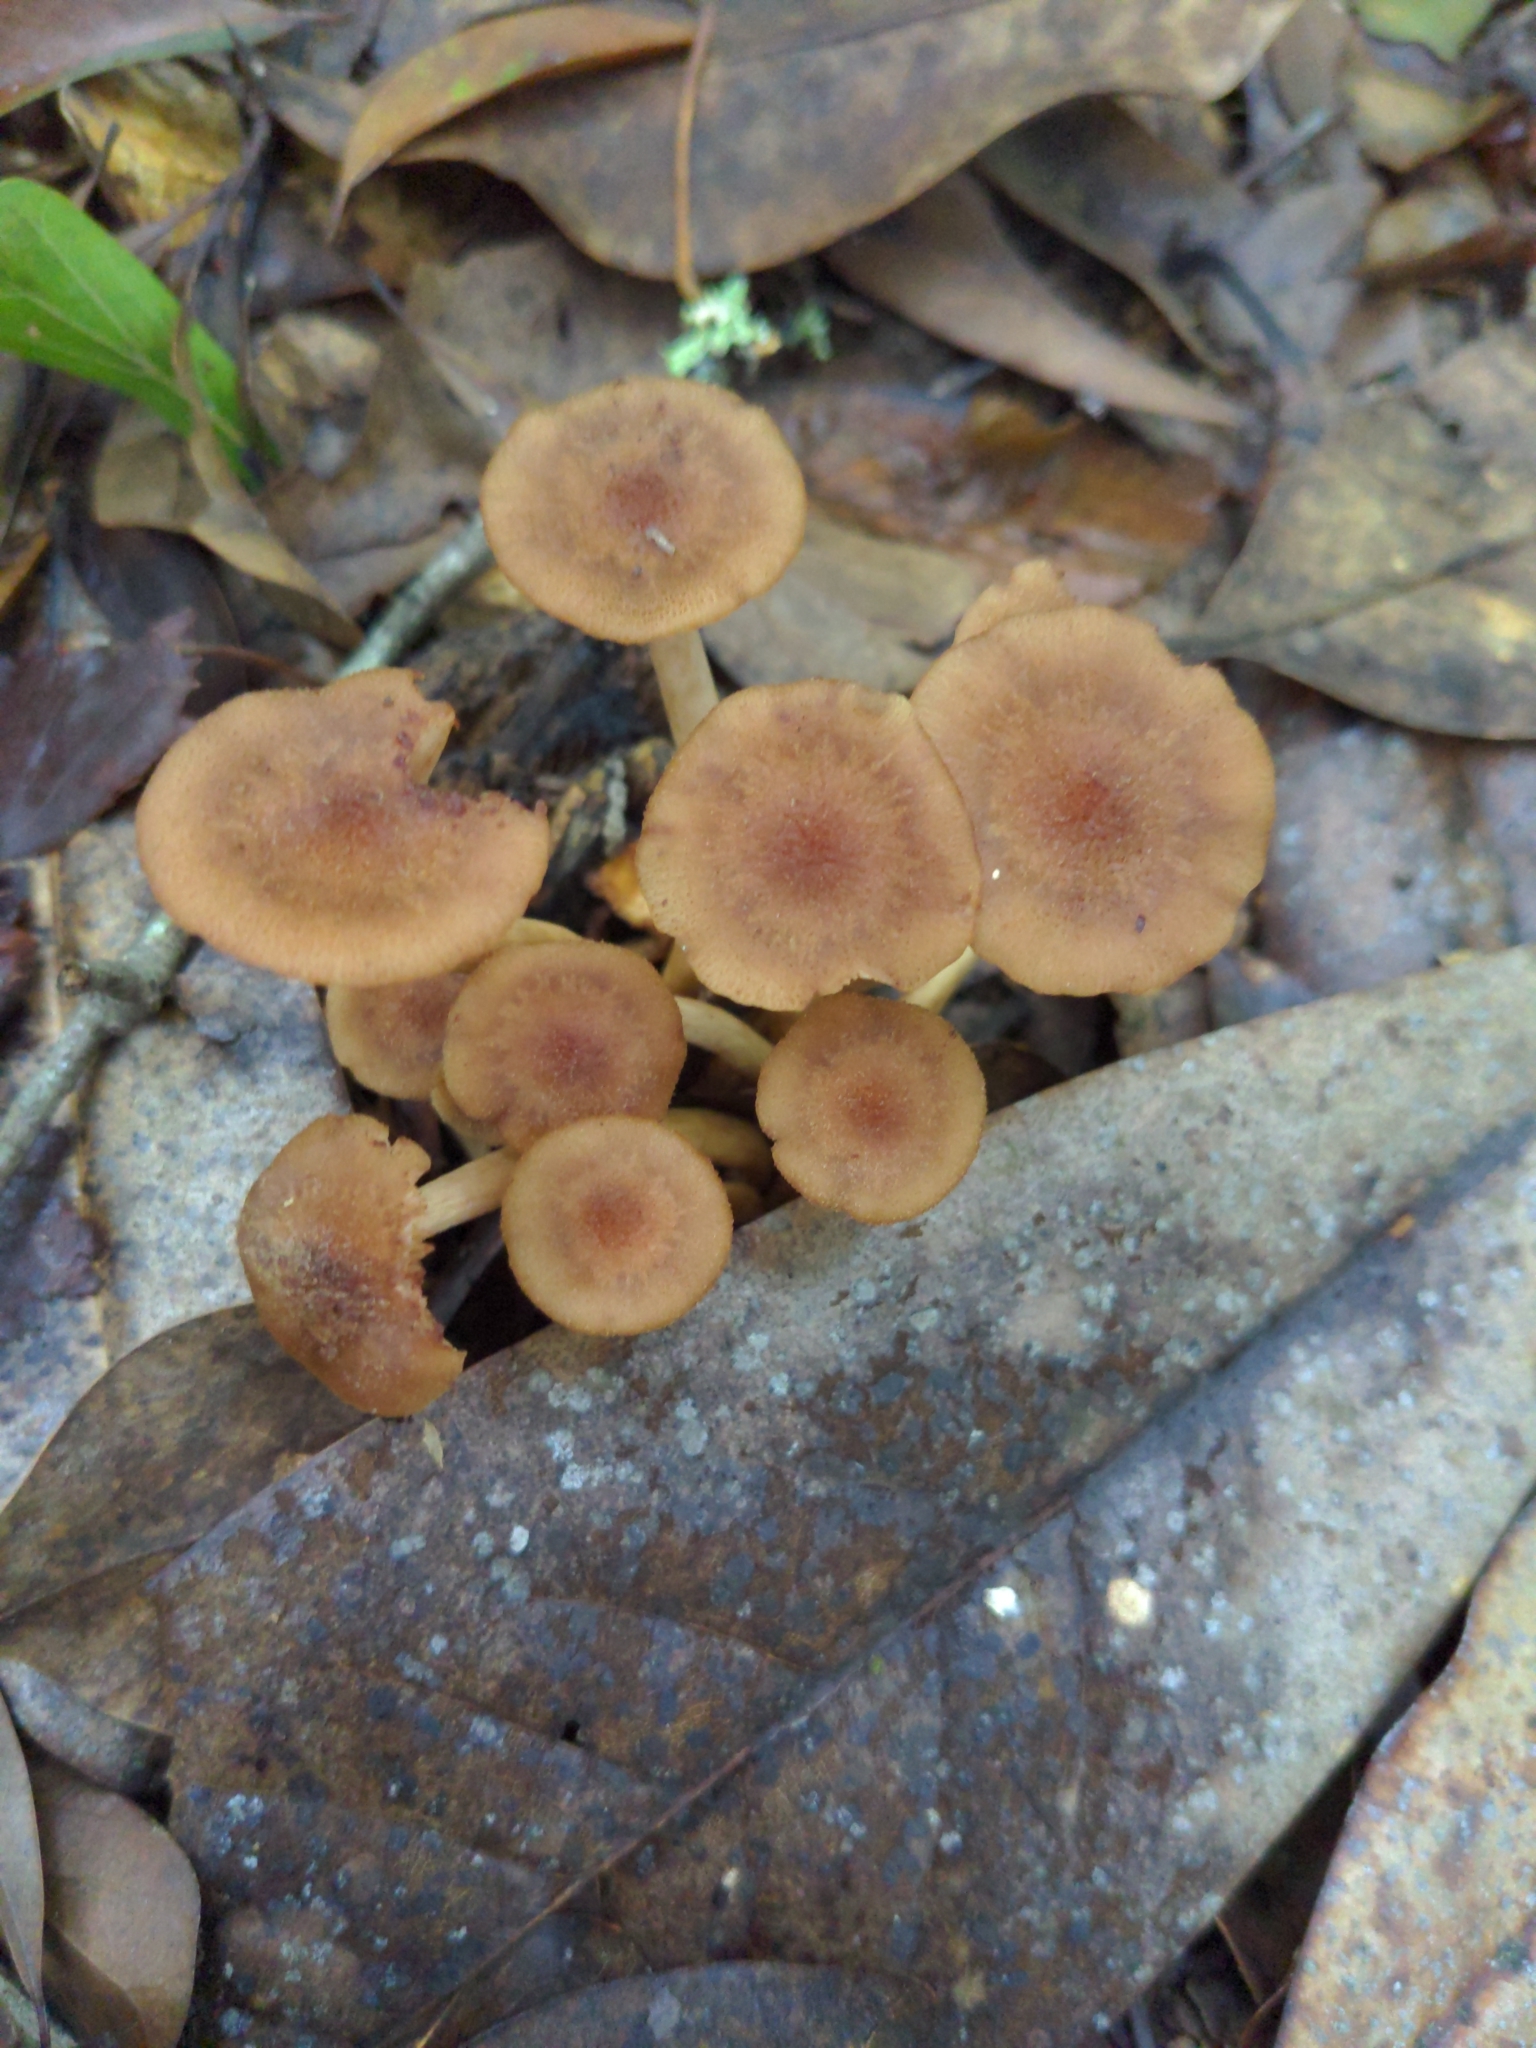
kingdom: Fungi
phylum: Basidiomycota
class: Agaricomycetes
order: Agaricales
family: Physalacriaceae
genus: Desarmillaria
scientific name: Desarmillaria caespitosa
